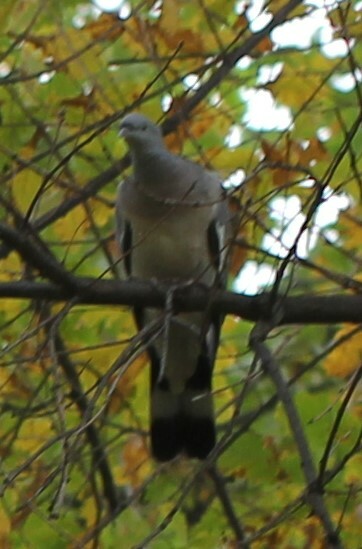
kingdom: Animalia
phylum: Chordata
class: Aves
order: Columbiformes
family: Columbidae
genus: Columba
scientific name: Columba palumbus
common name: Common wood pigeon
